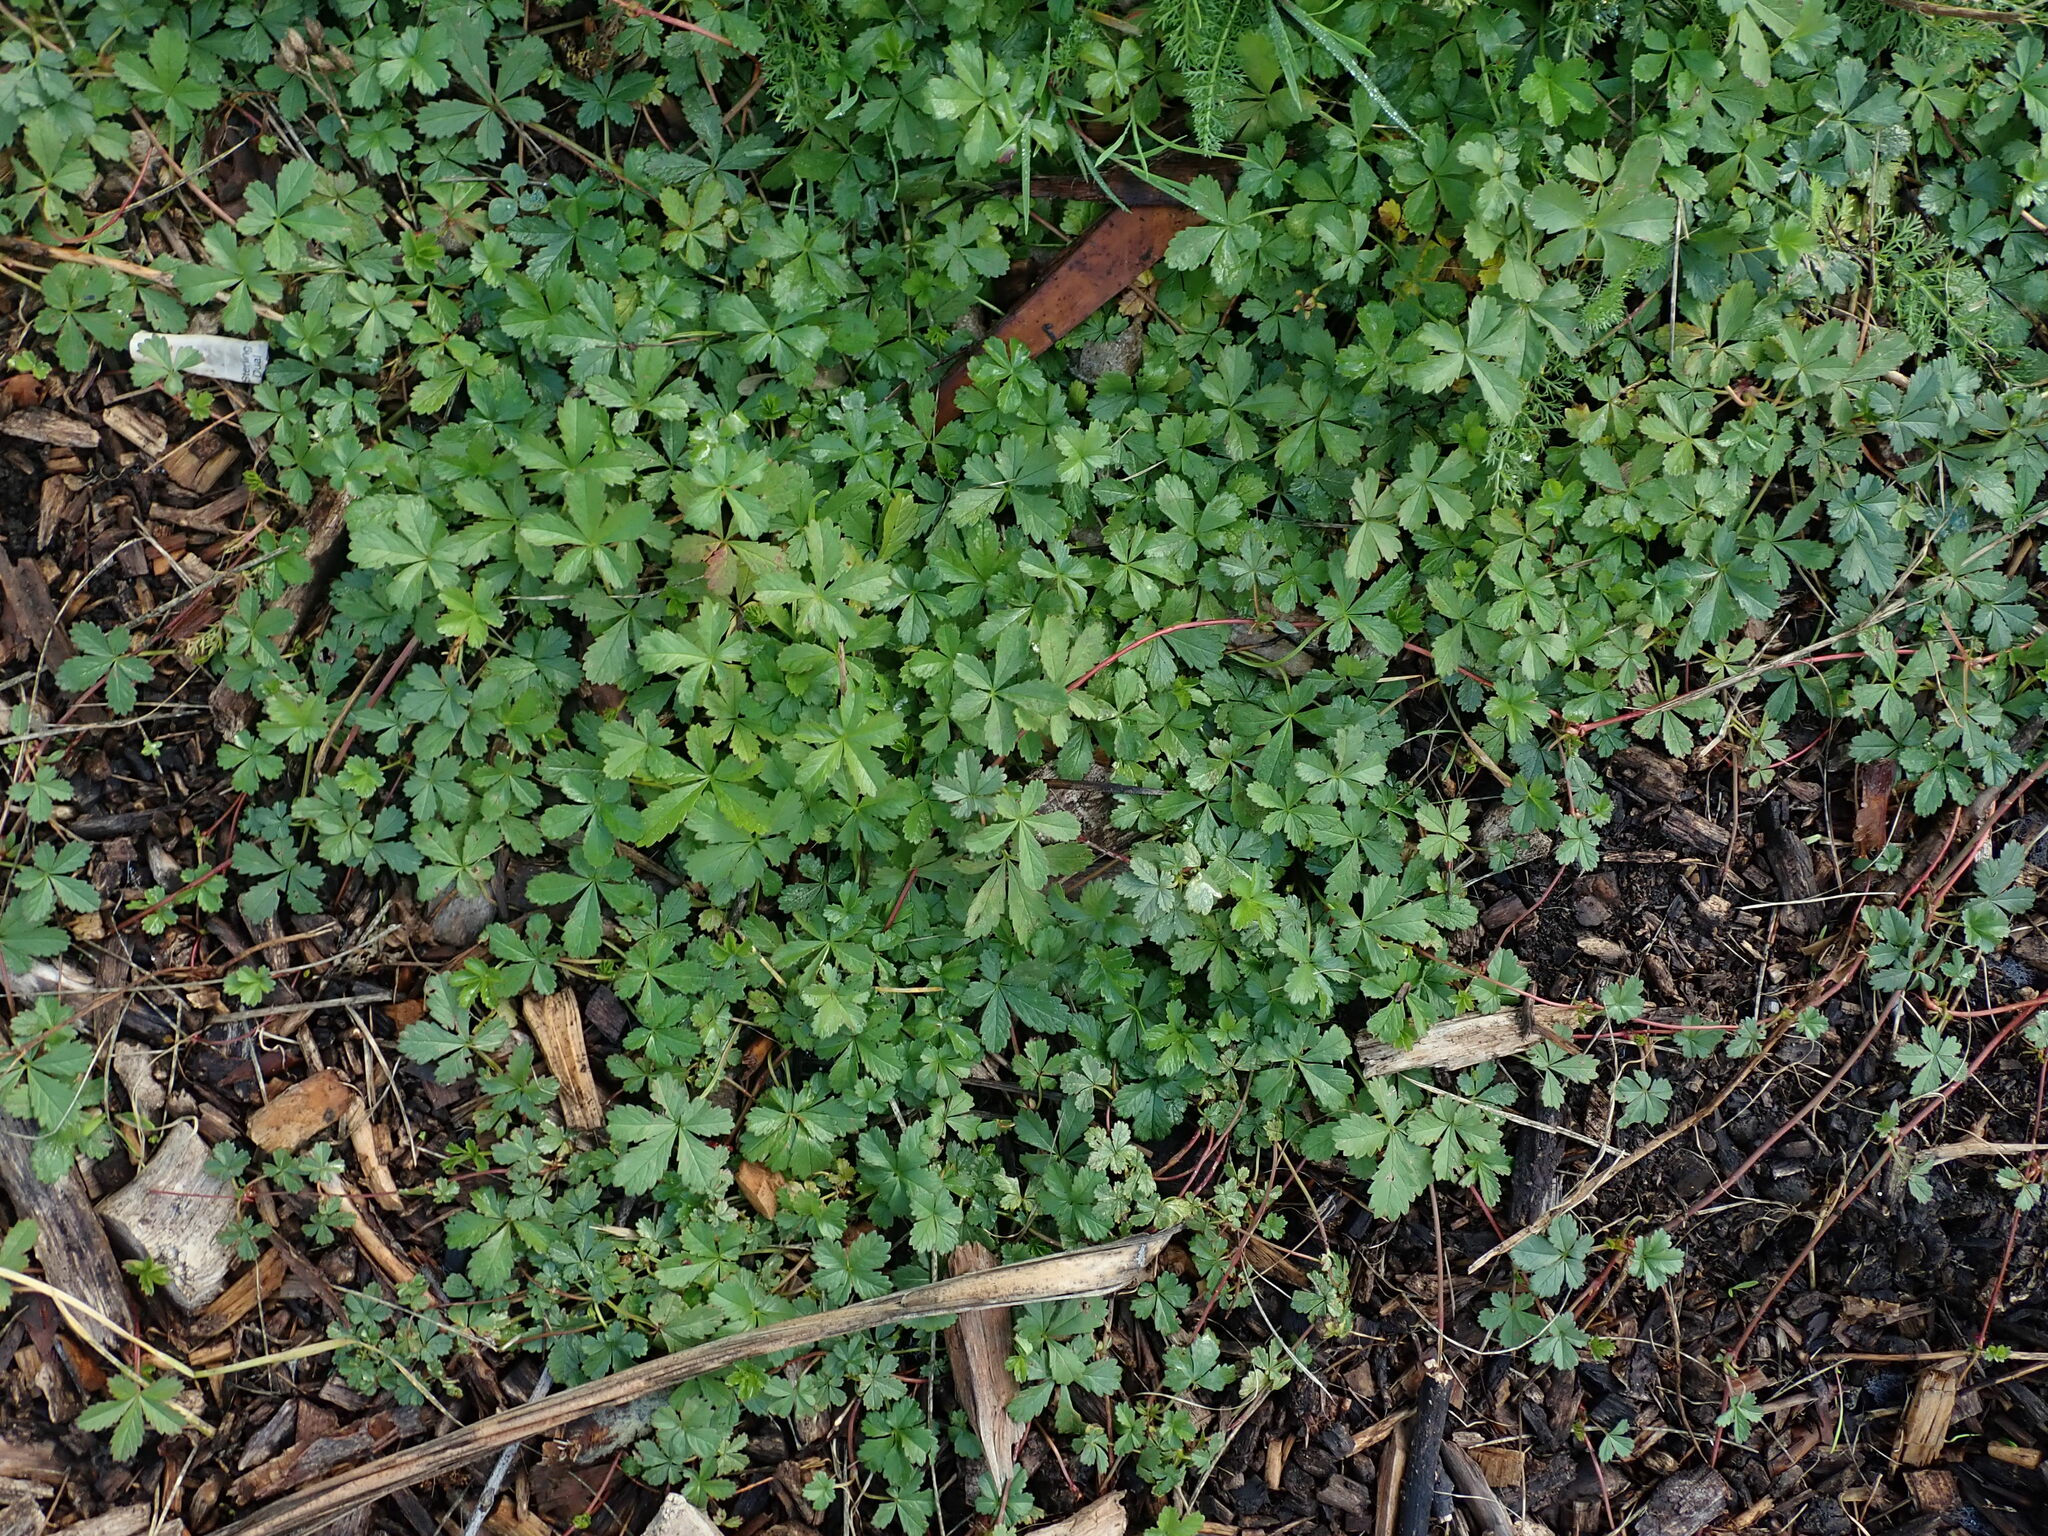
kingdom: Plantae
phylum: Tracheophyta
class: Magnoliopsida
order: Rosales
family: Rosaceae
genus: Potentilla
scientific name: Potentilla reptans
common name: Creeping cinquefoil
